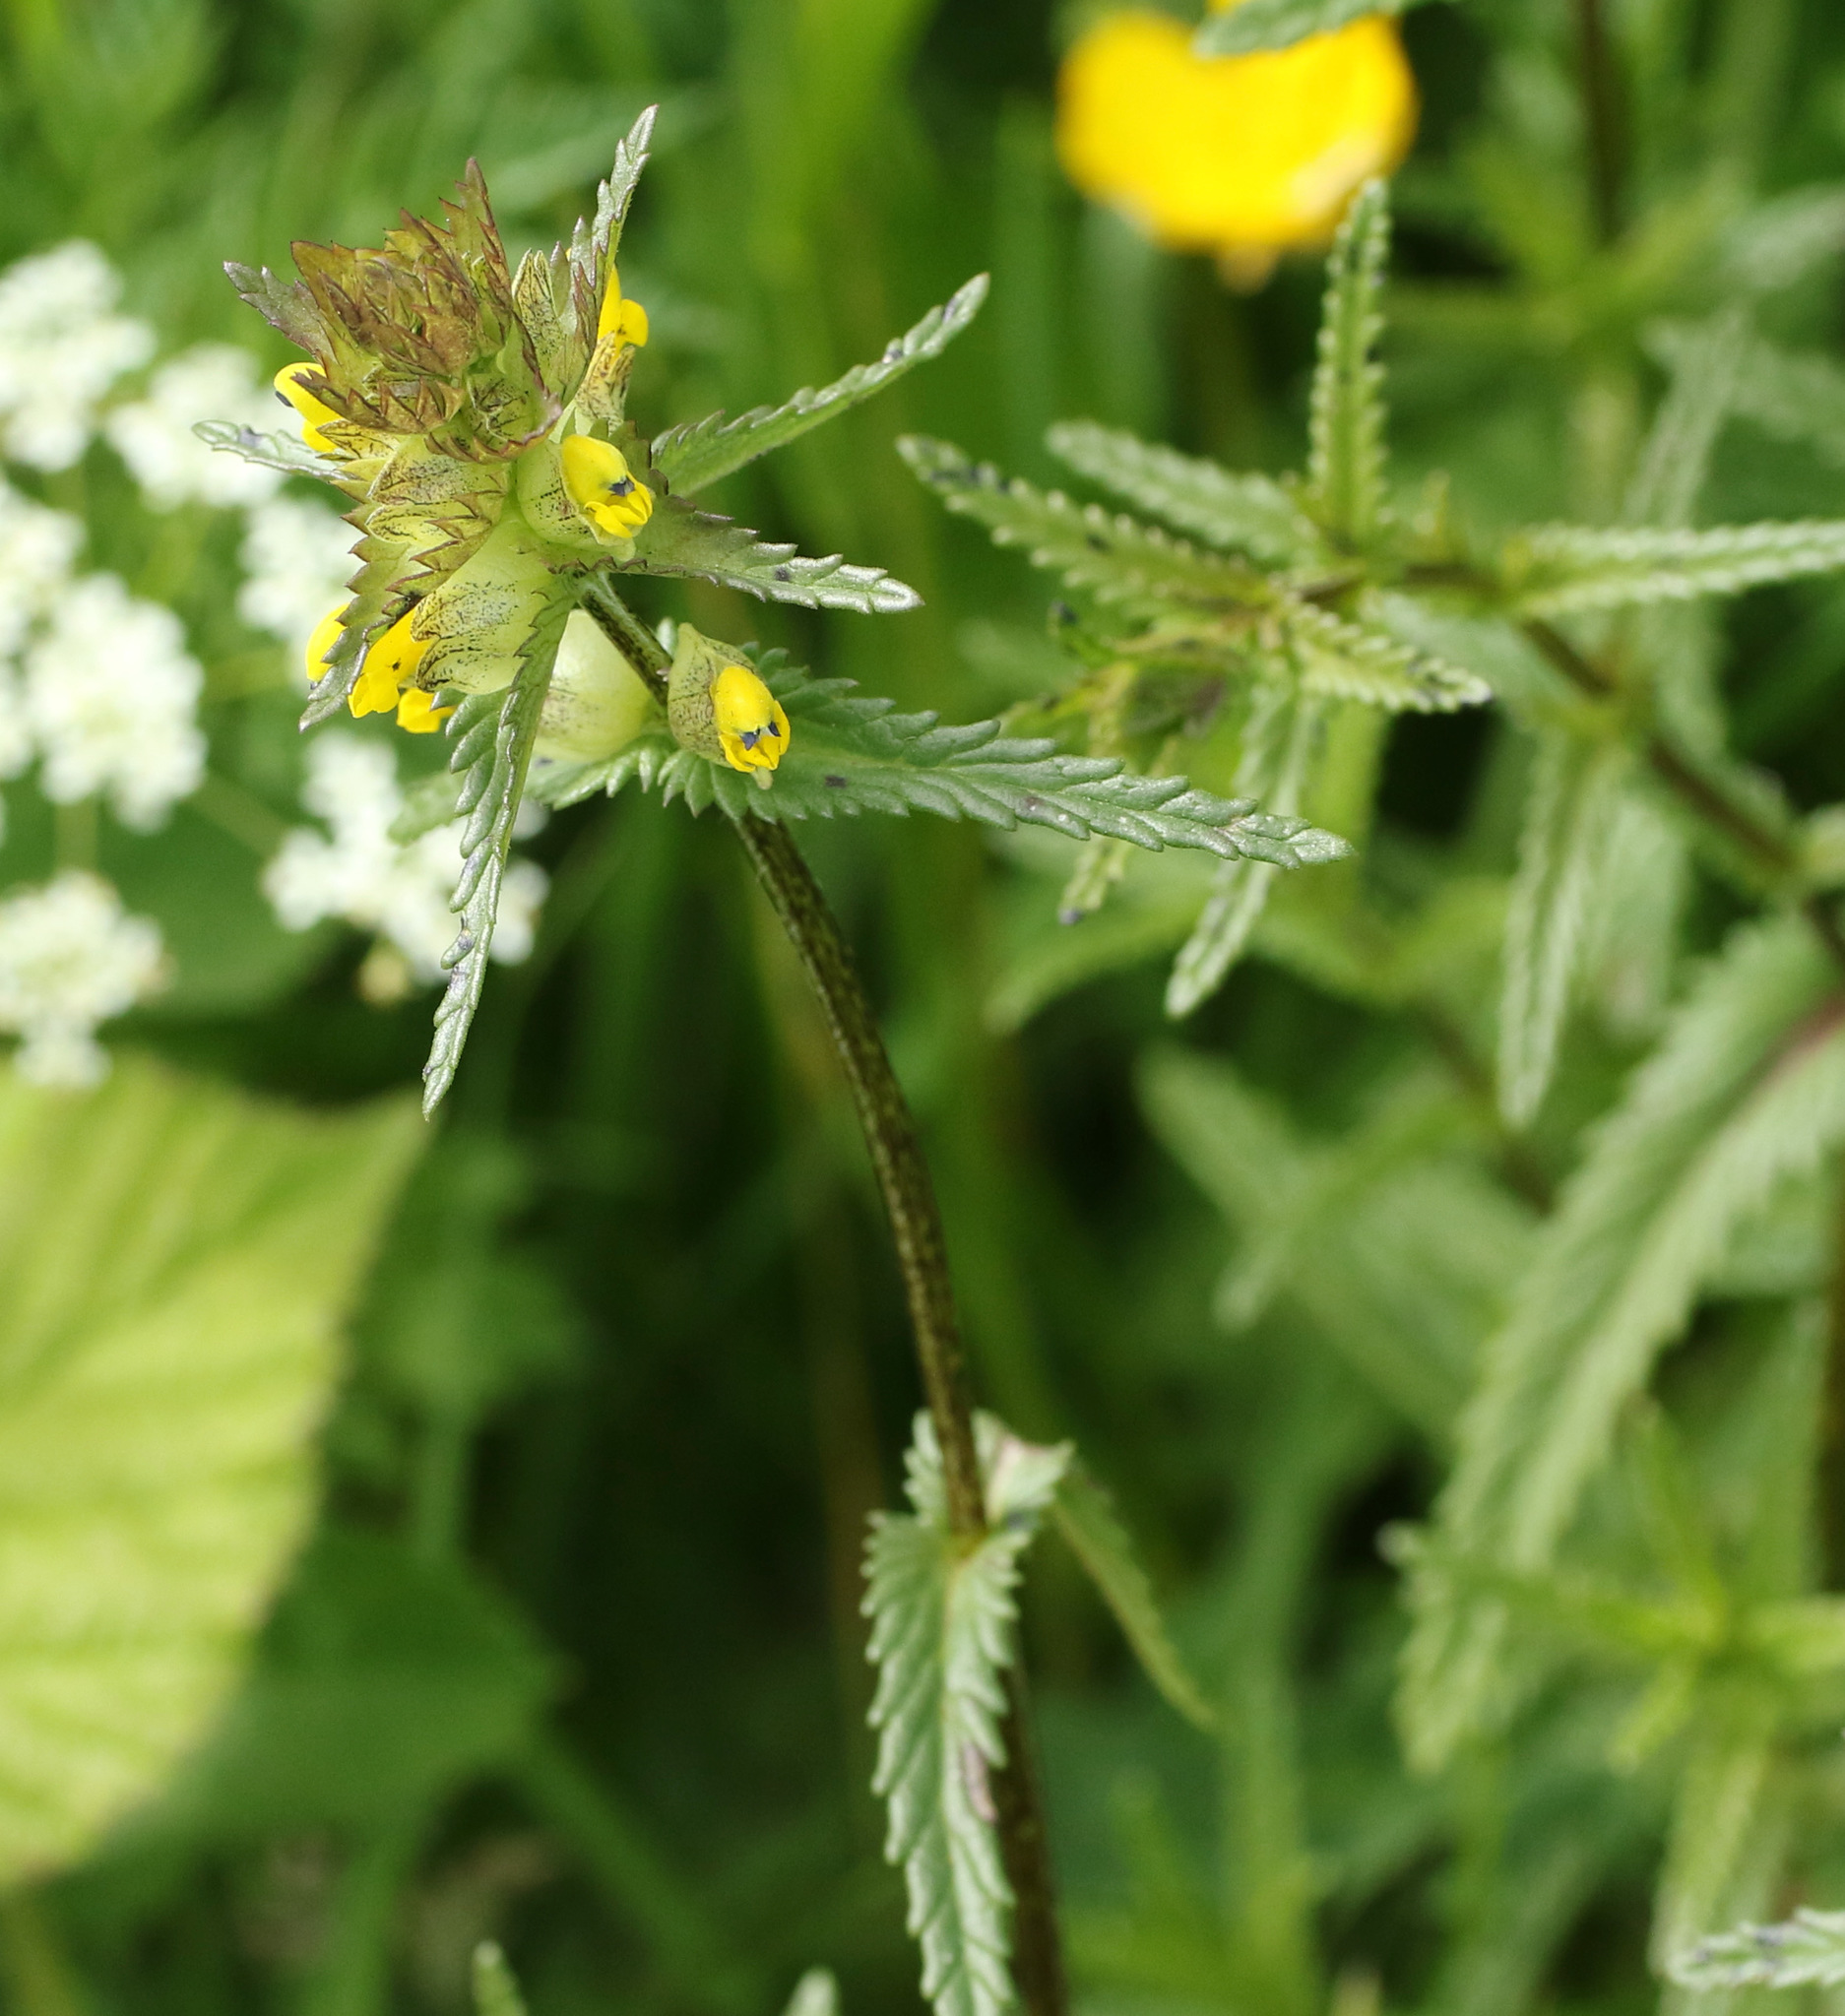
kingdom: Plantae
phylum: Tracheophyta
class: Magnoliopsida
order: Lamiales
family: Orobanchaceae
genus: Rhinanthus
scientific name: Rhinanthus minor
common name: Yellow-rattle
